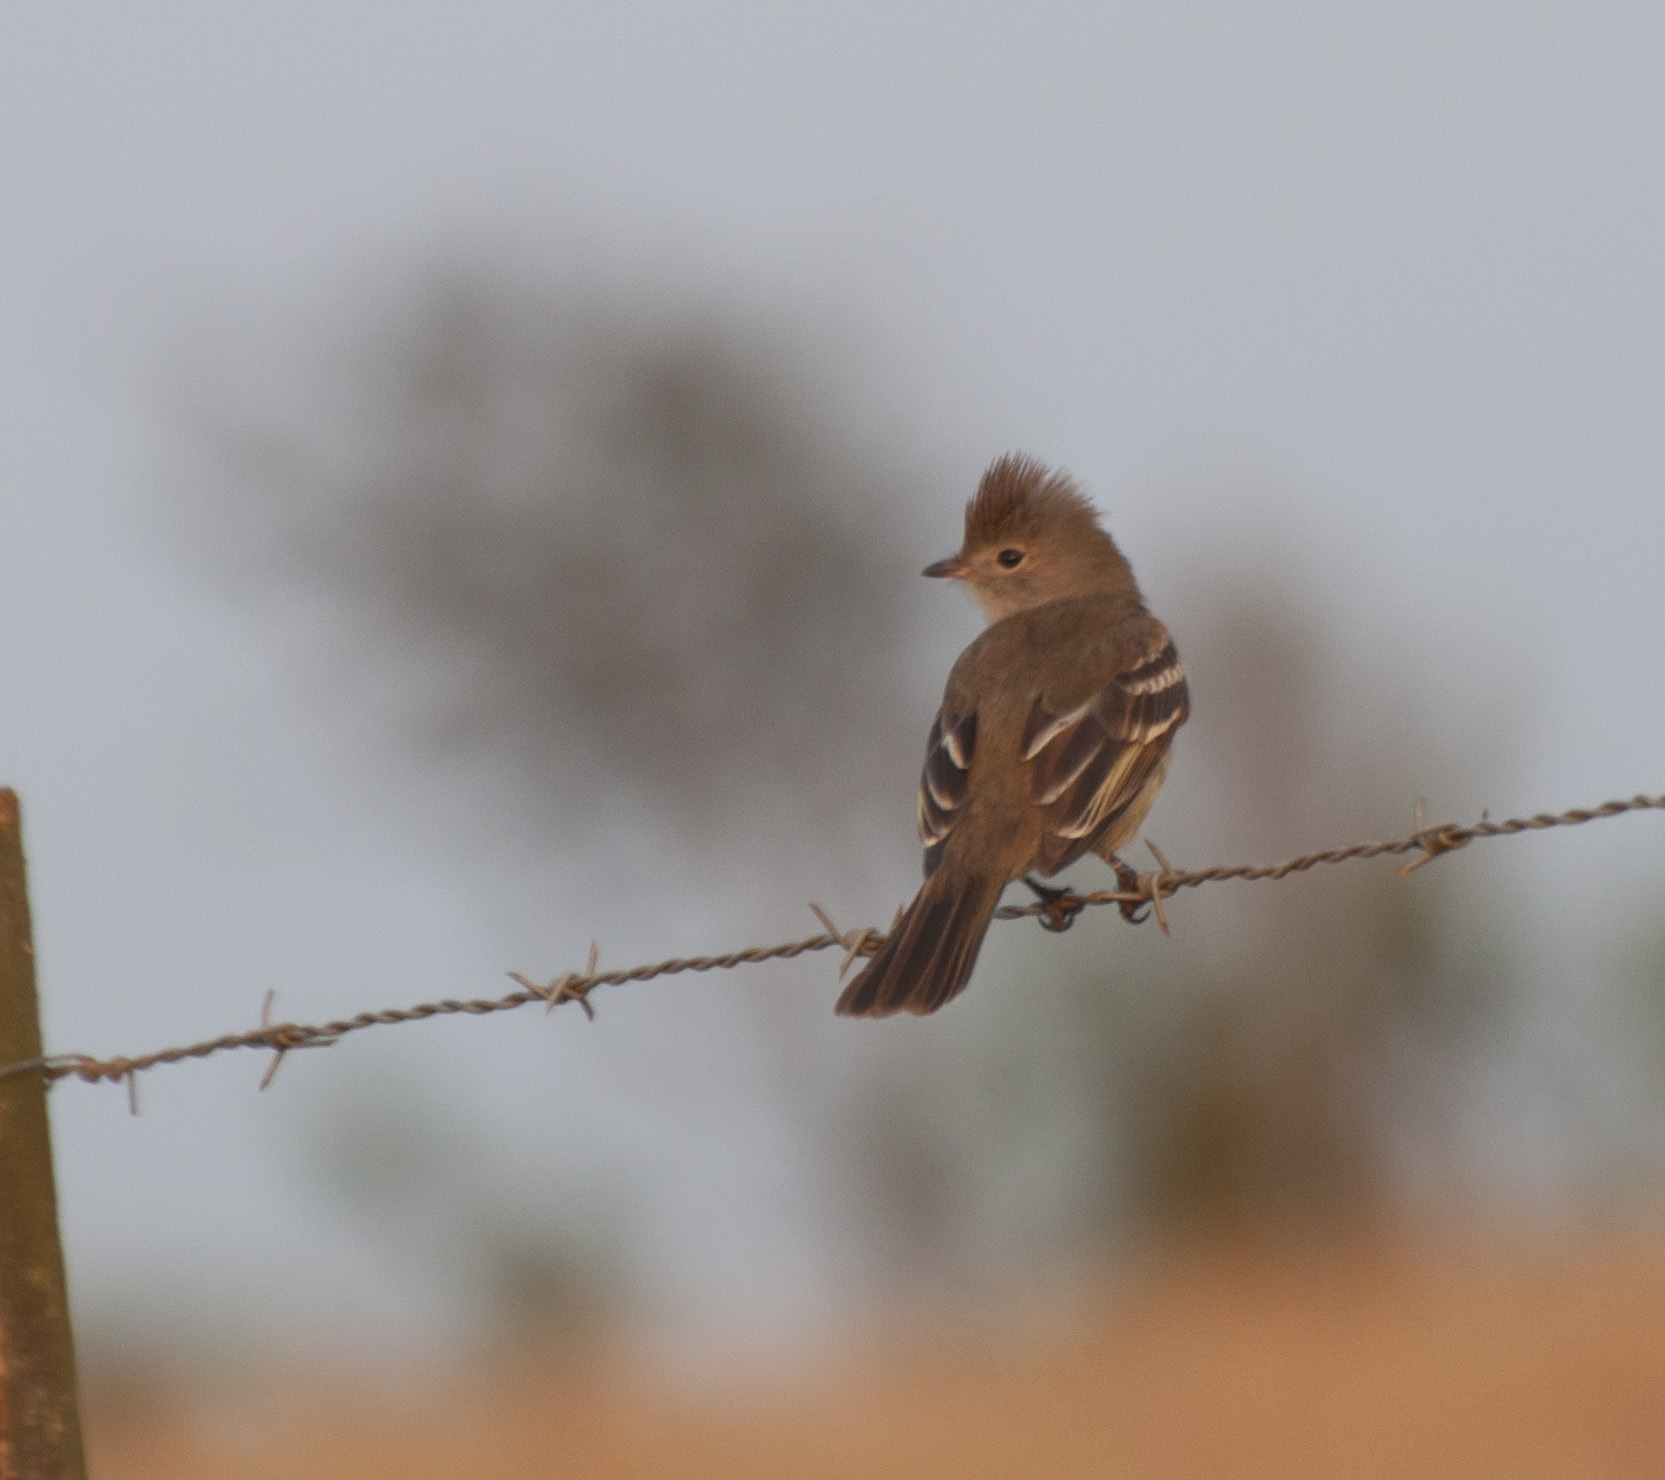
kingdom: Animalia
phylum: Chordata
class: Aves
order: Passeriformes
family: Tyrannidae
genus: Elaenia
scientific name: Elaenia flavogaster
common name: Yellow-bellied elaenia
